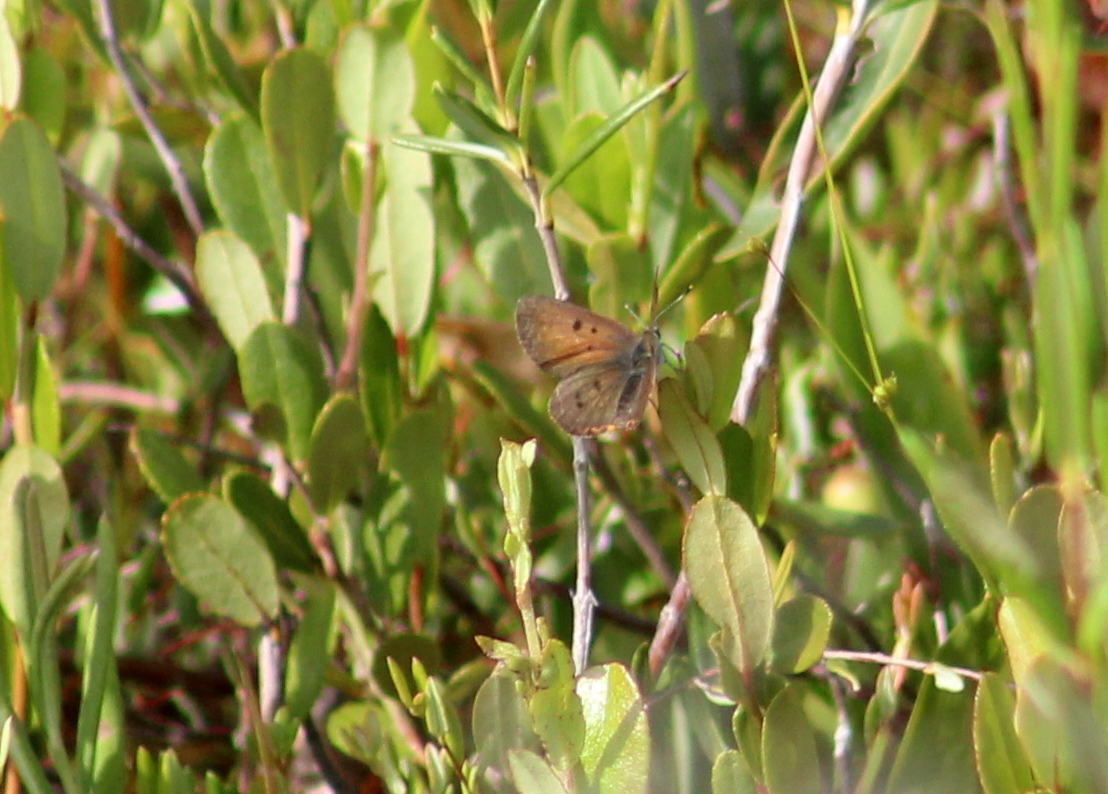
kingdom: Animalia
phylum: Arthropoda
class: Insecta
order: Lepidoptera
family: Lycaenidae
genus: Tharsalea
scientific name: Tharsalea epixanthe
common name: Bog copper
